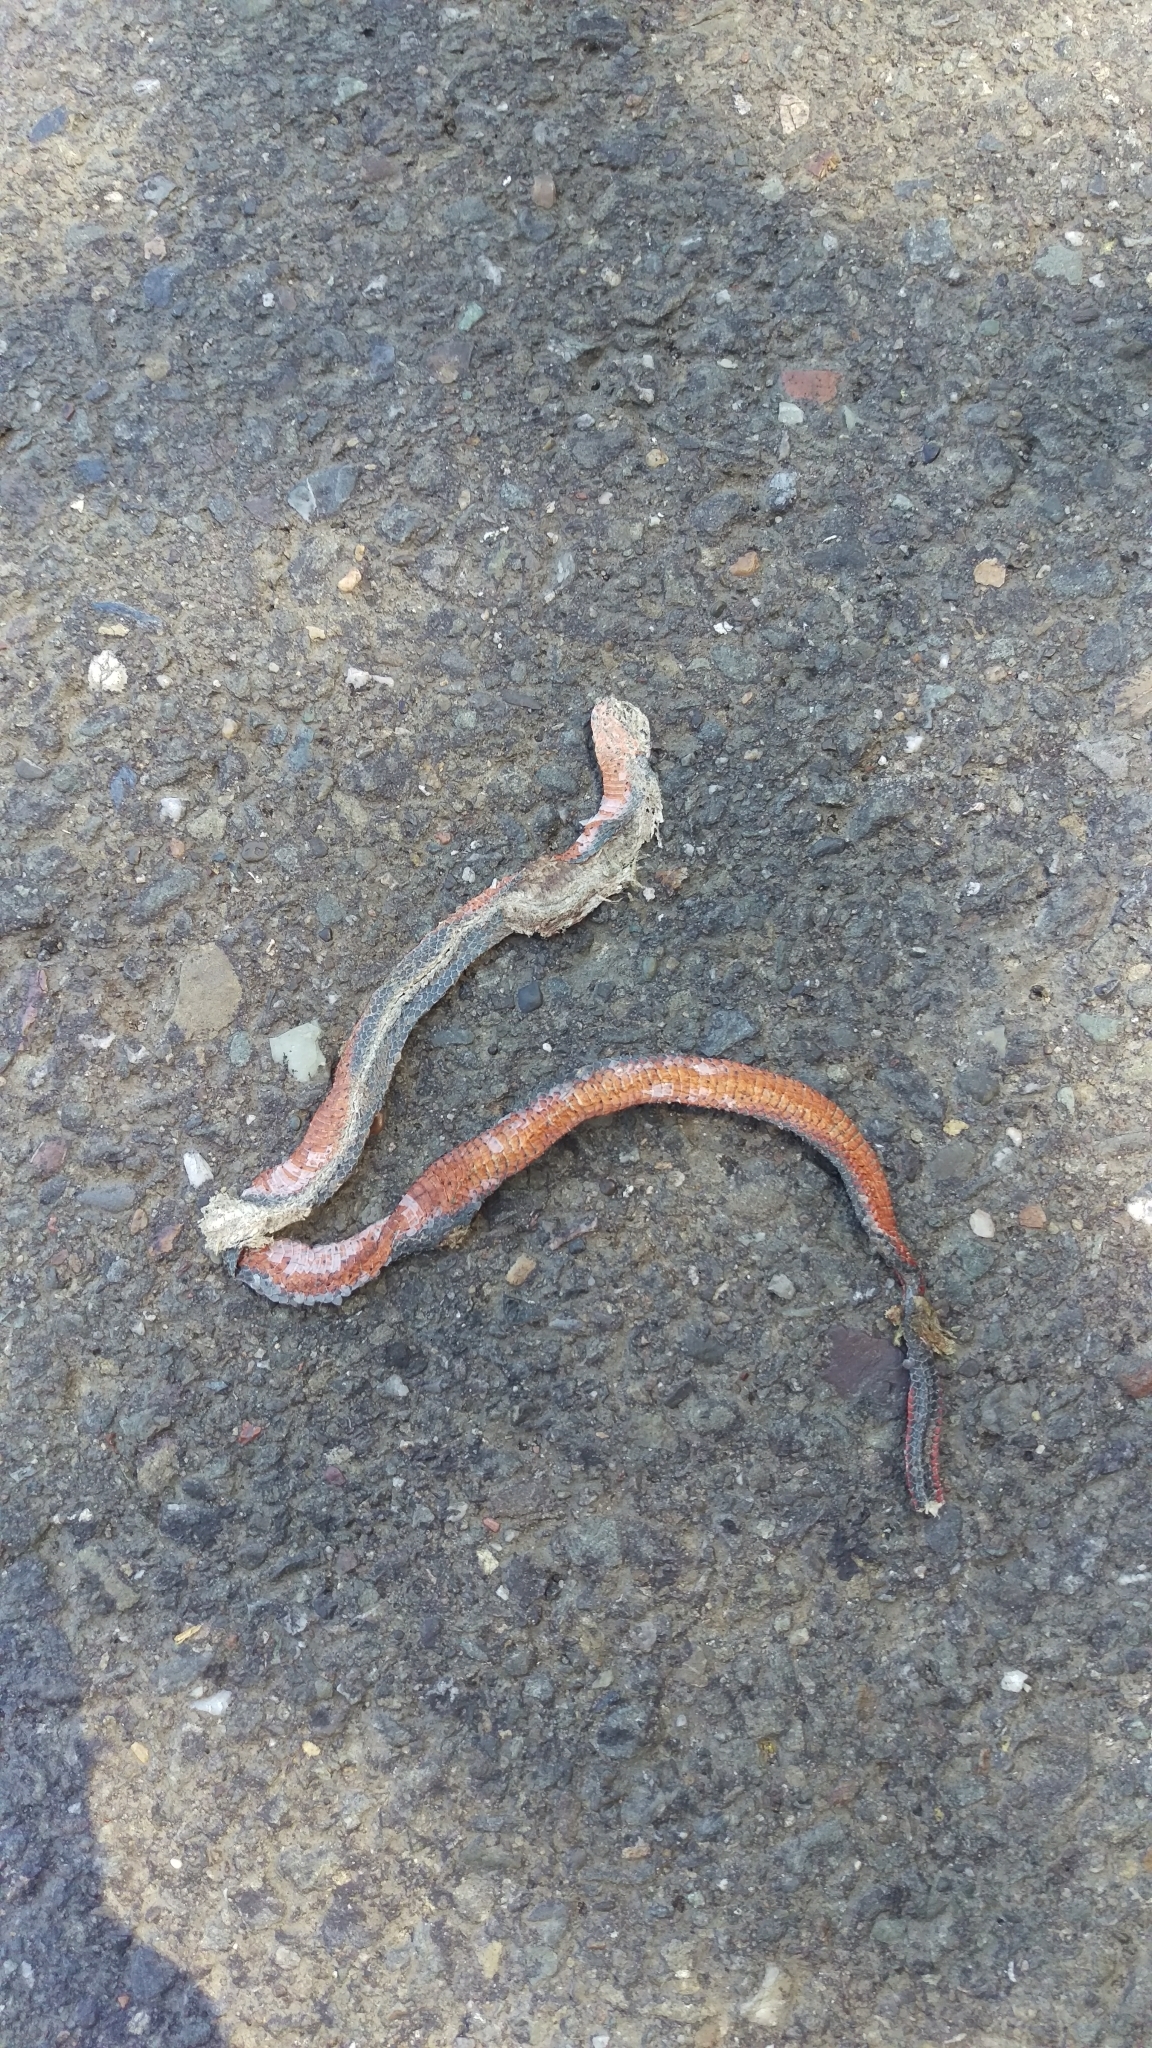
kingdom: Animalia
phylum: Chordata
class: Squamata
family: Colubridae
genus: Diadophis
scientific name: Diadophis punctatus
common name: Ringneck snake
